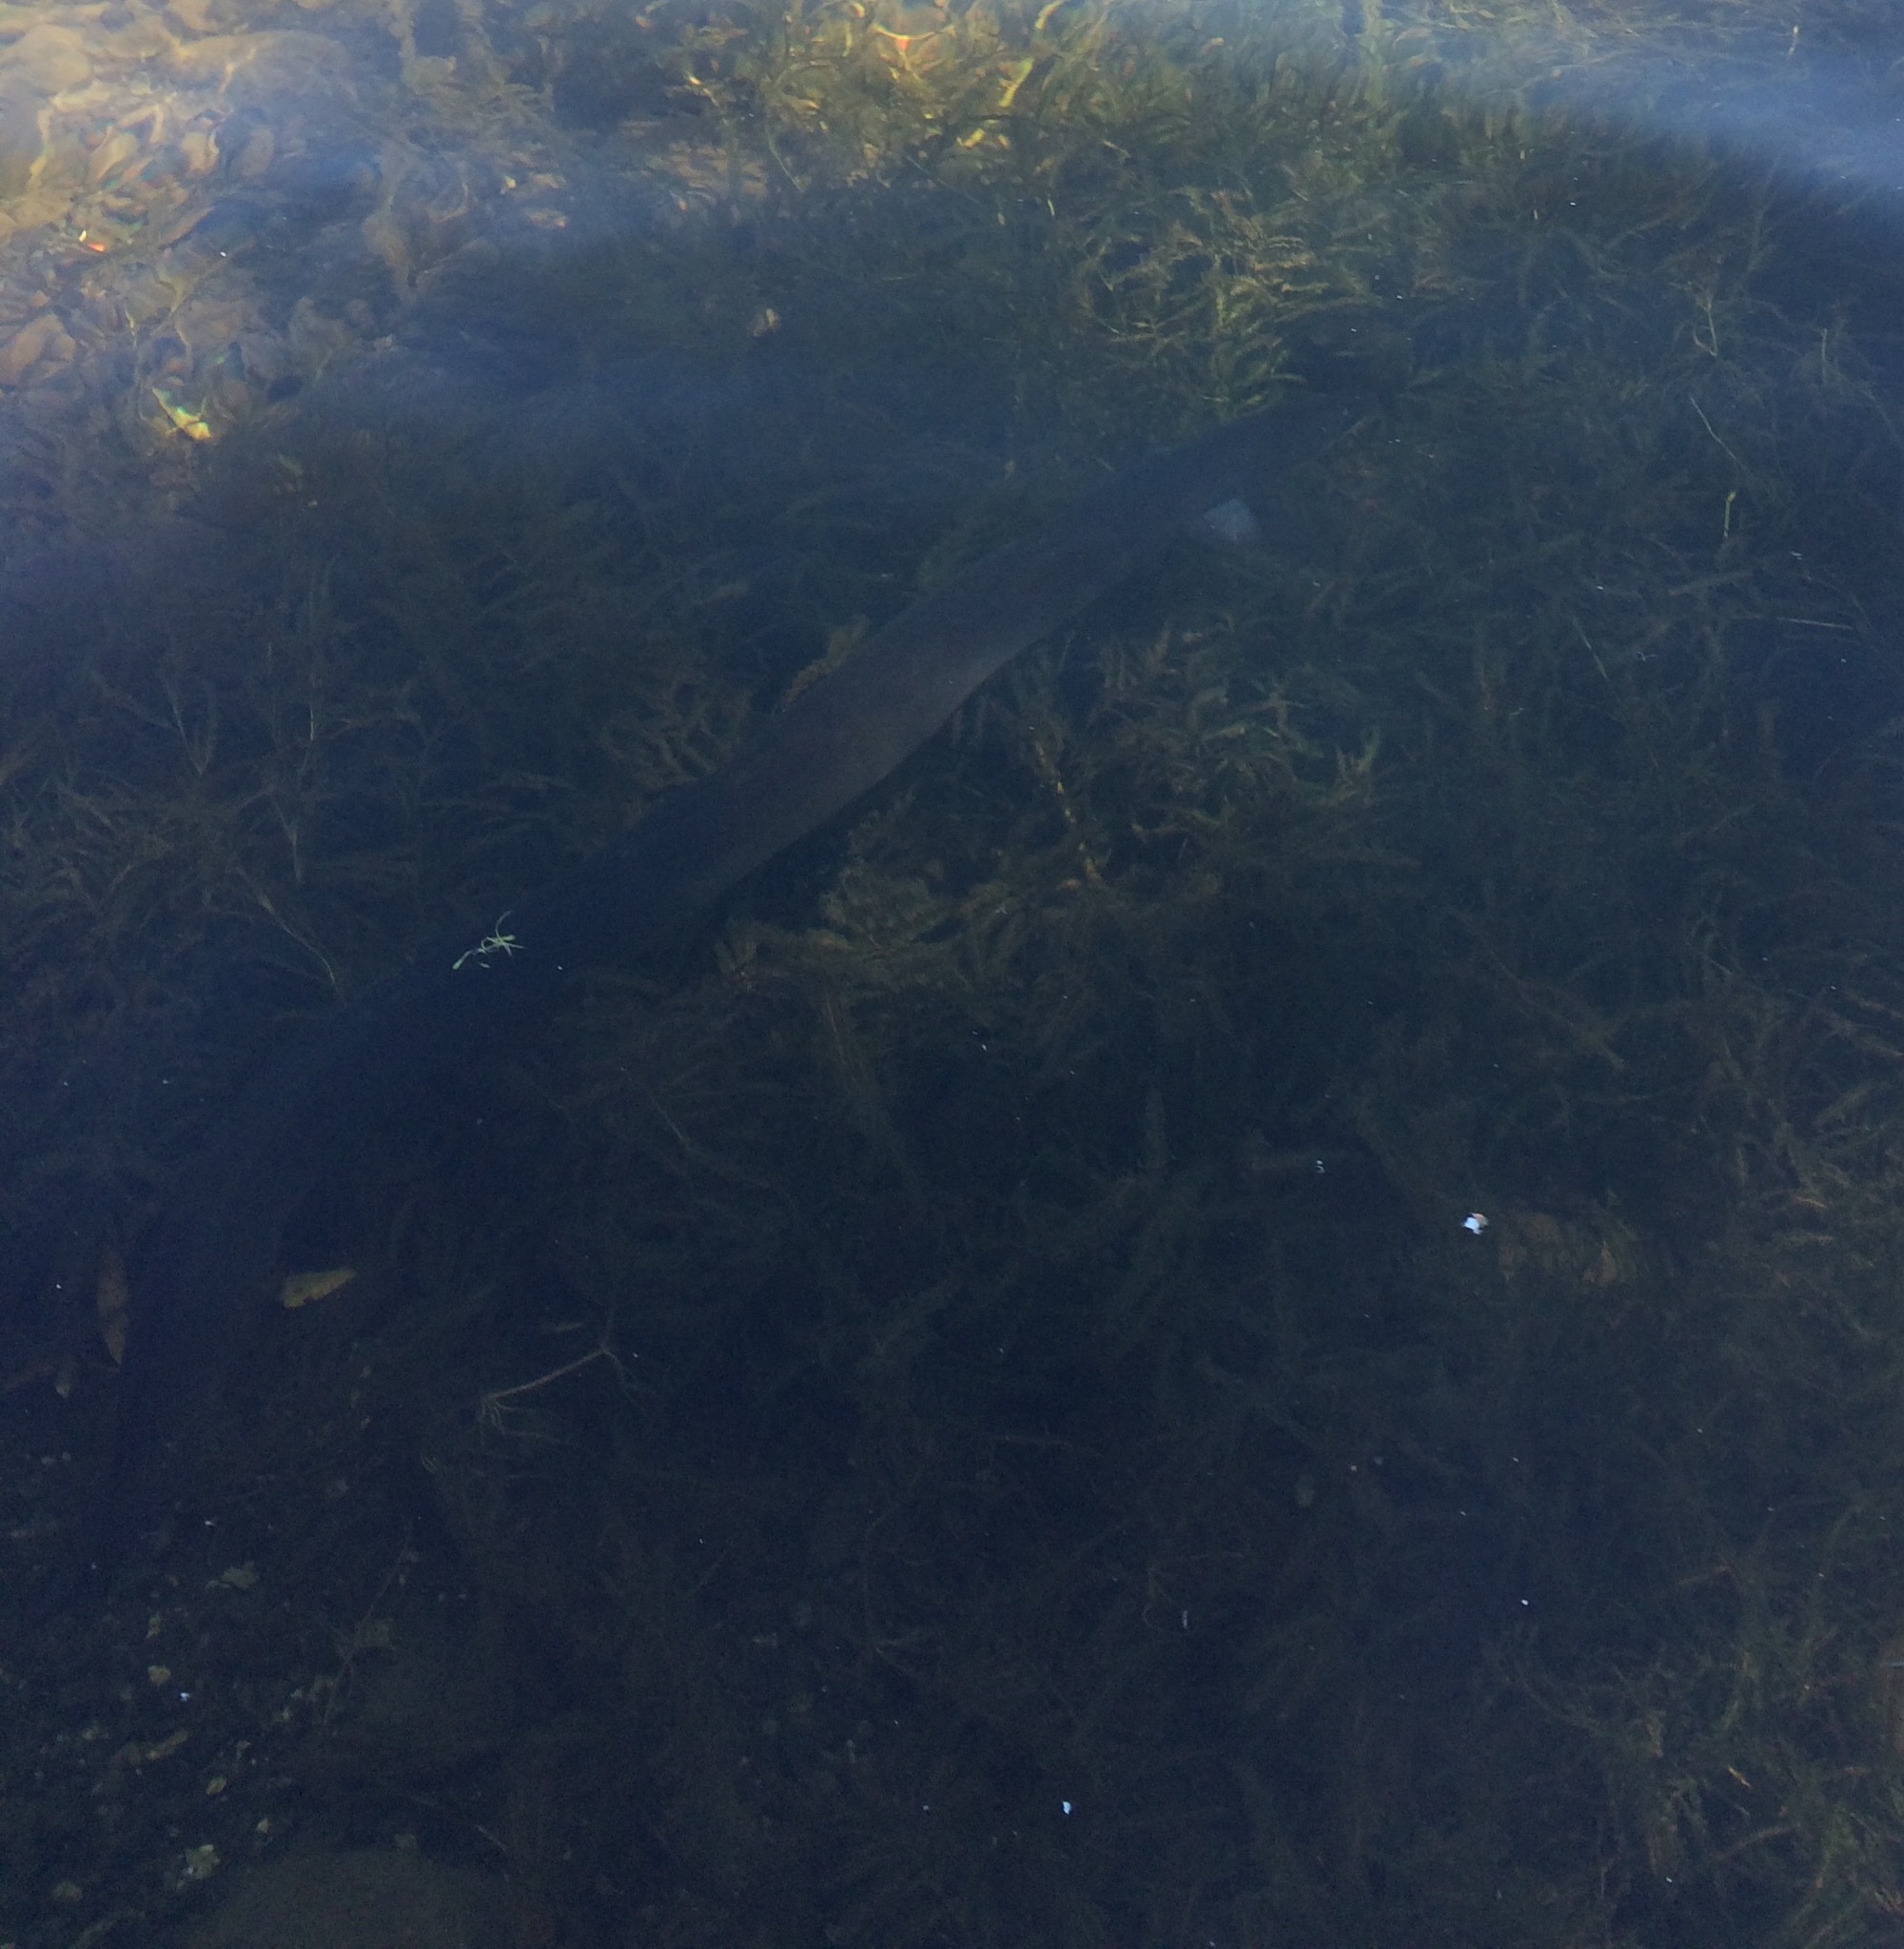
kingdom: Animalia
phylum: Chordata
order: Anguilliformes
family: Anguillidae
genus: Anguilla
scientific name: Anguilla australis
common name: Shortfin eel
